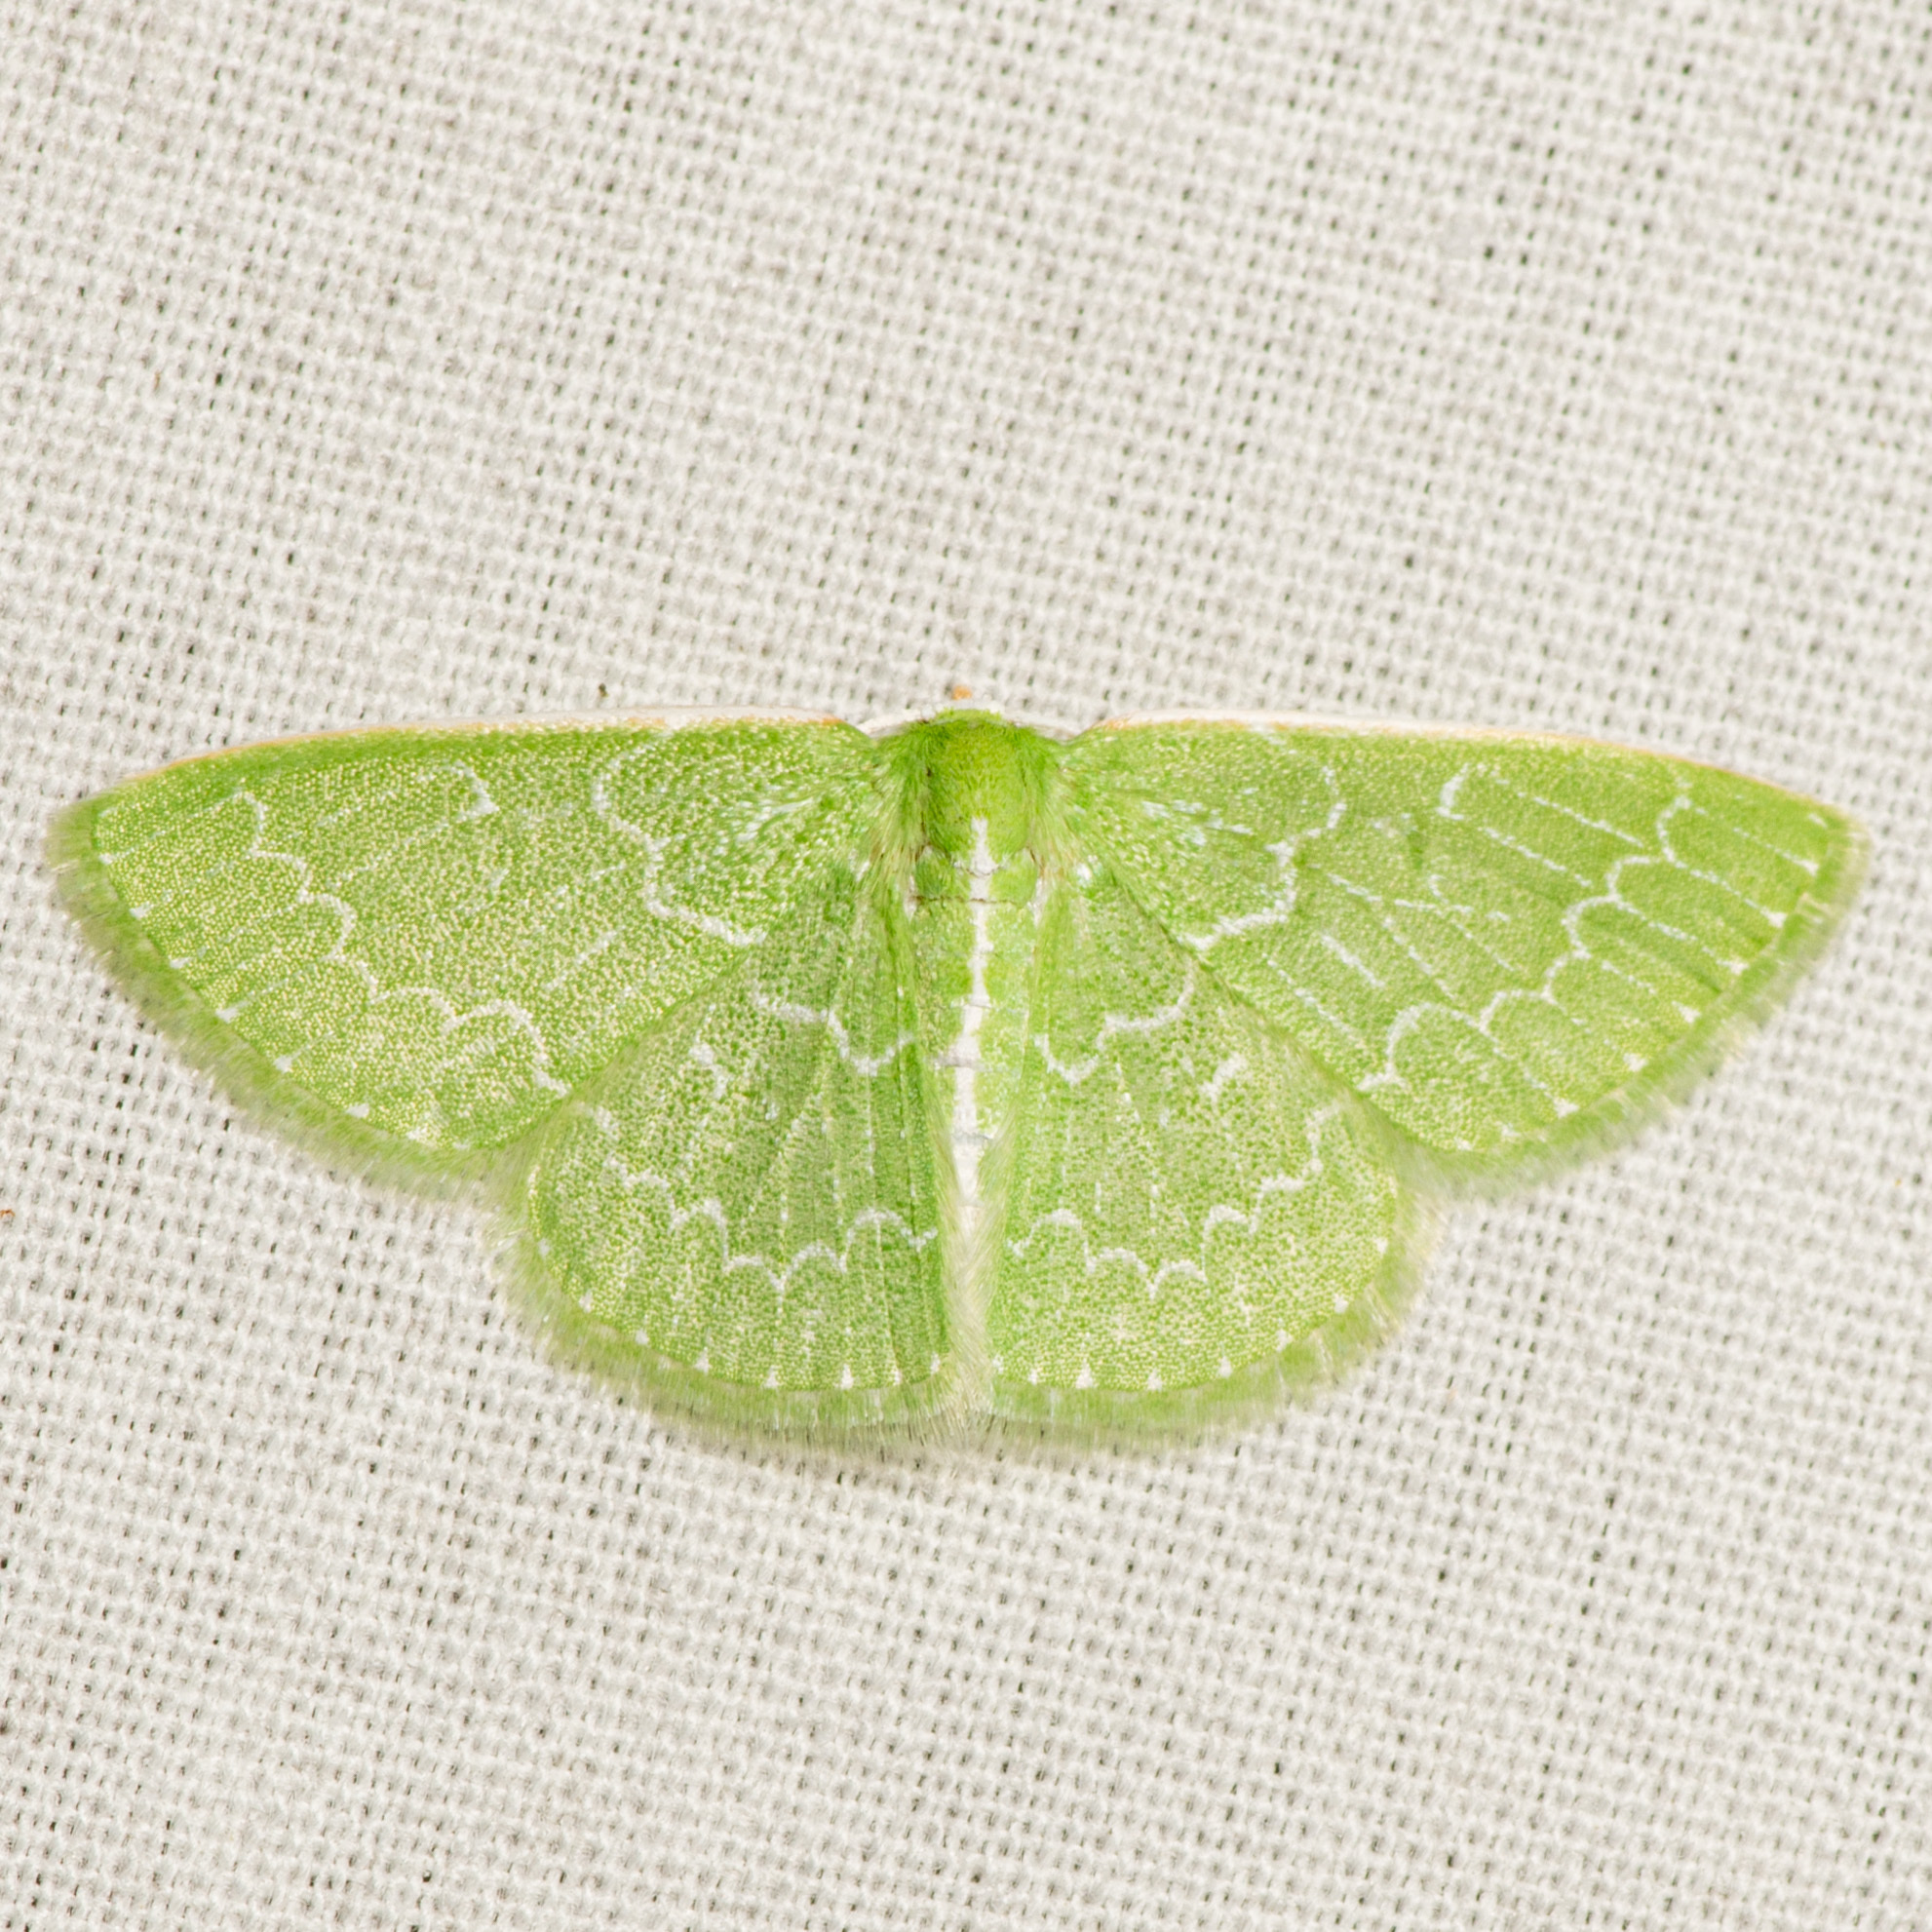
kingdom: Animalia
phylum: Arthropoda
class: Insecta
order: Lepidoptera
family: Geometridae
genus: Synchlora
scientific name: Synchlora frondaria
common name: Southern emerald
